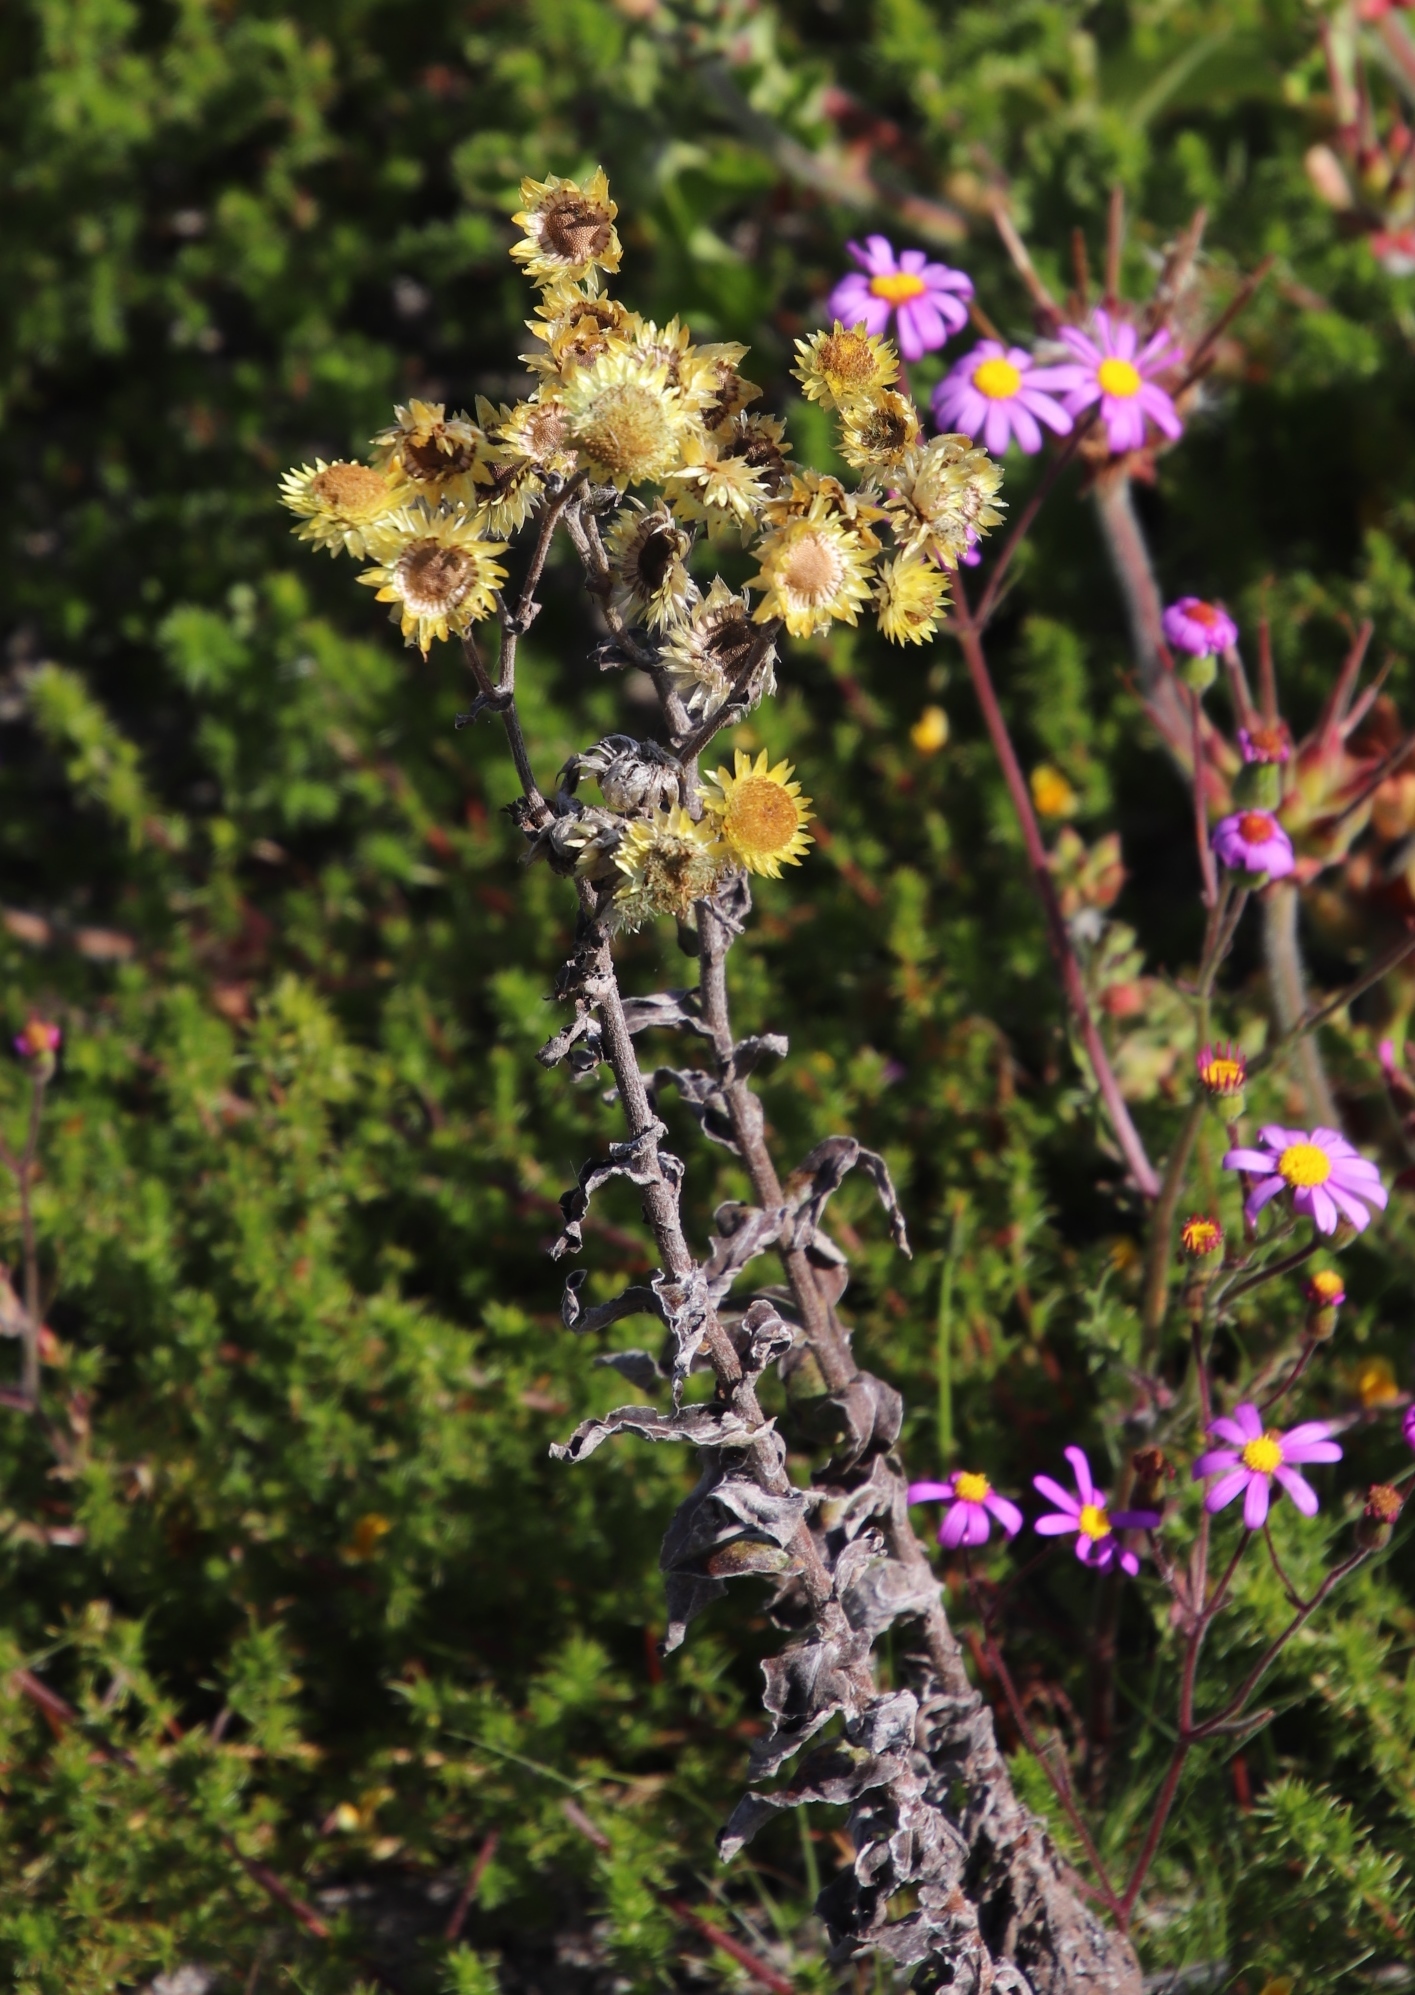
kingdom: Plantae
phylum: Tracheophyta
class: Magnoliopsida
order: Asterales
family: Asteraceae
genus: Helichrysum
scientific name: Helichrysum foetidum
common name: Stinking everlasting
